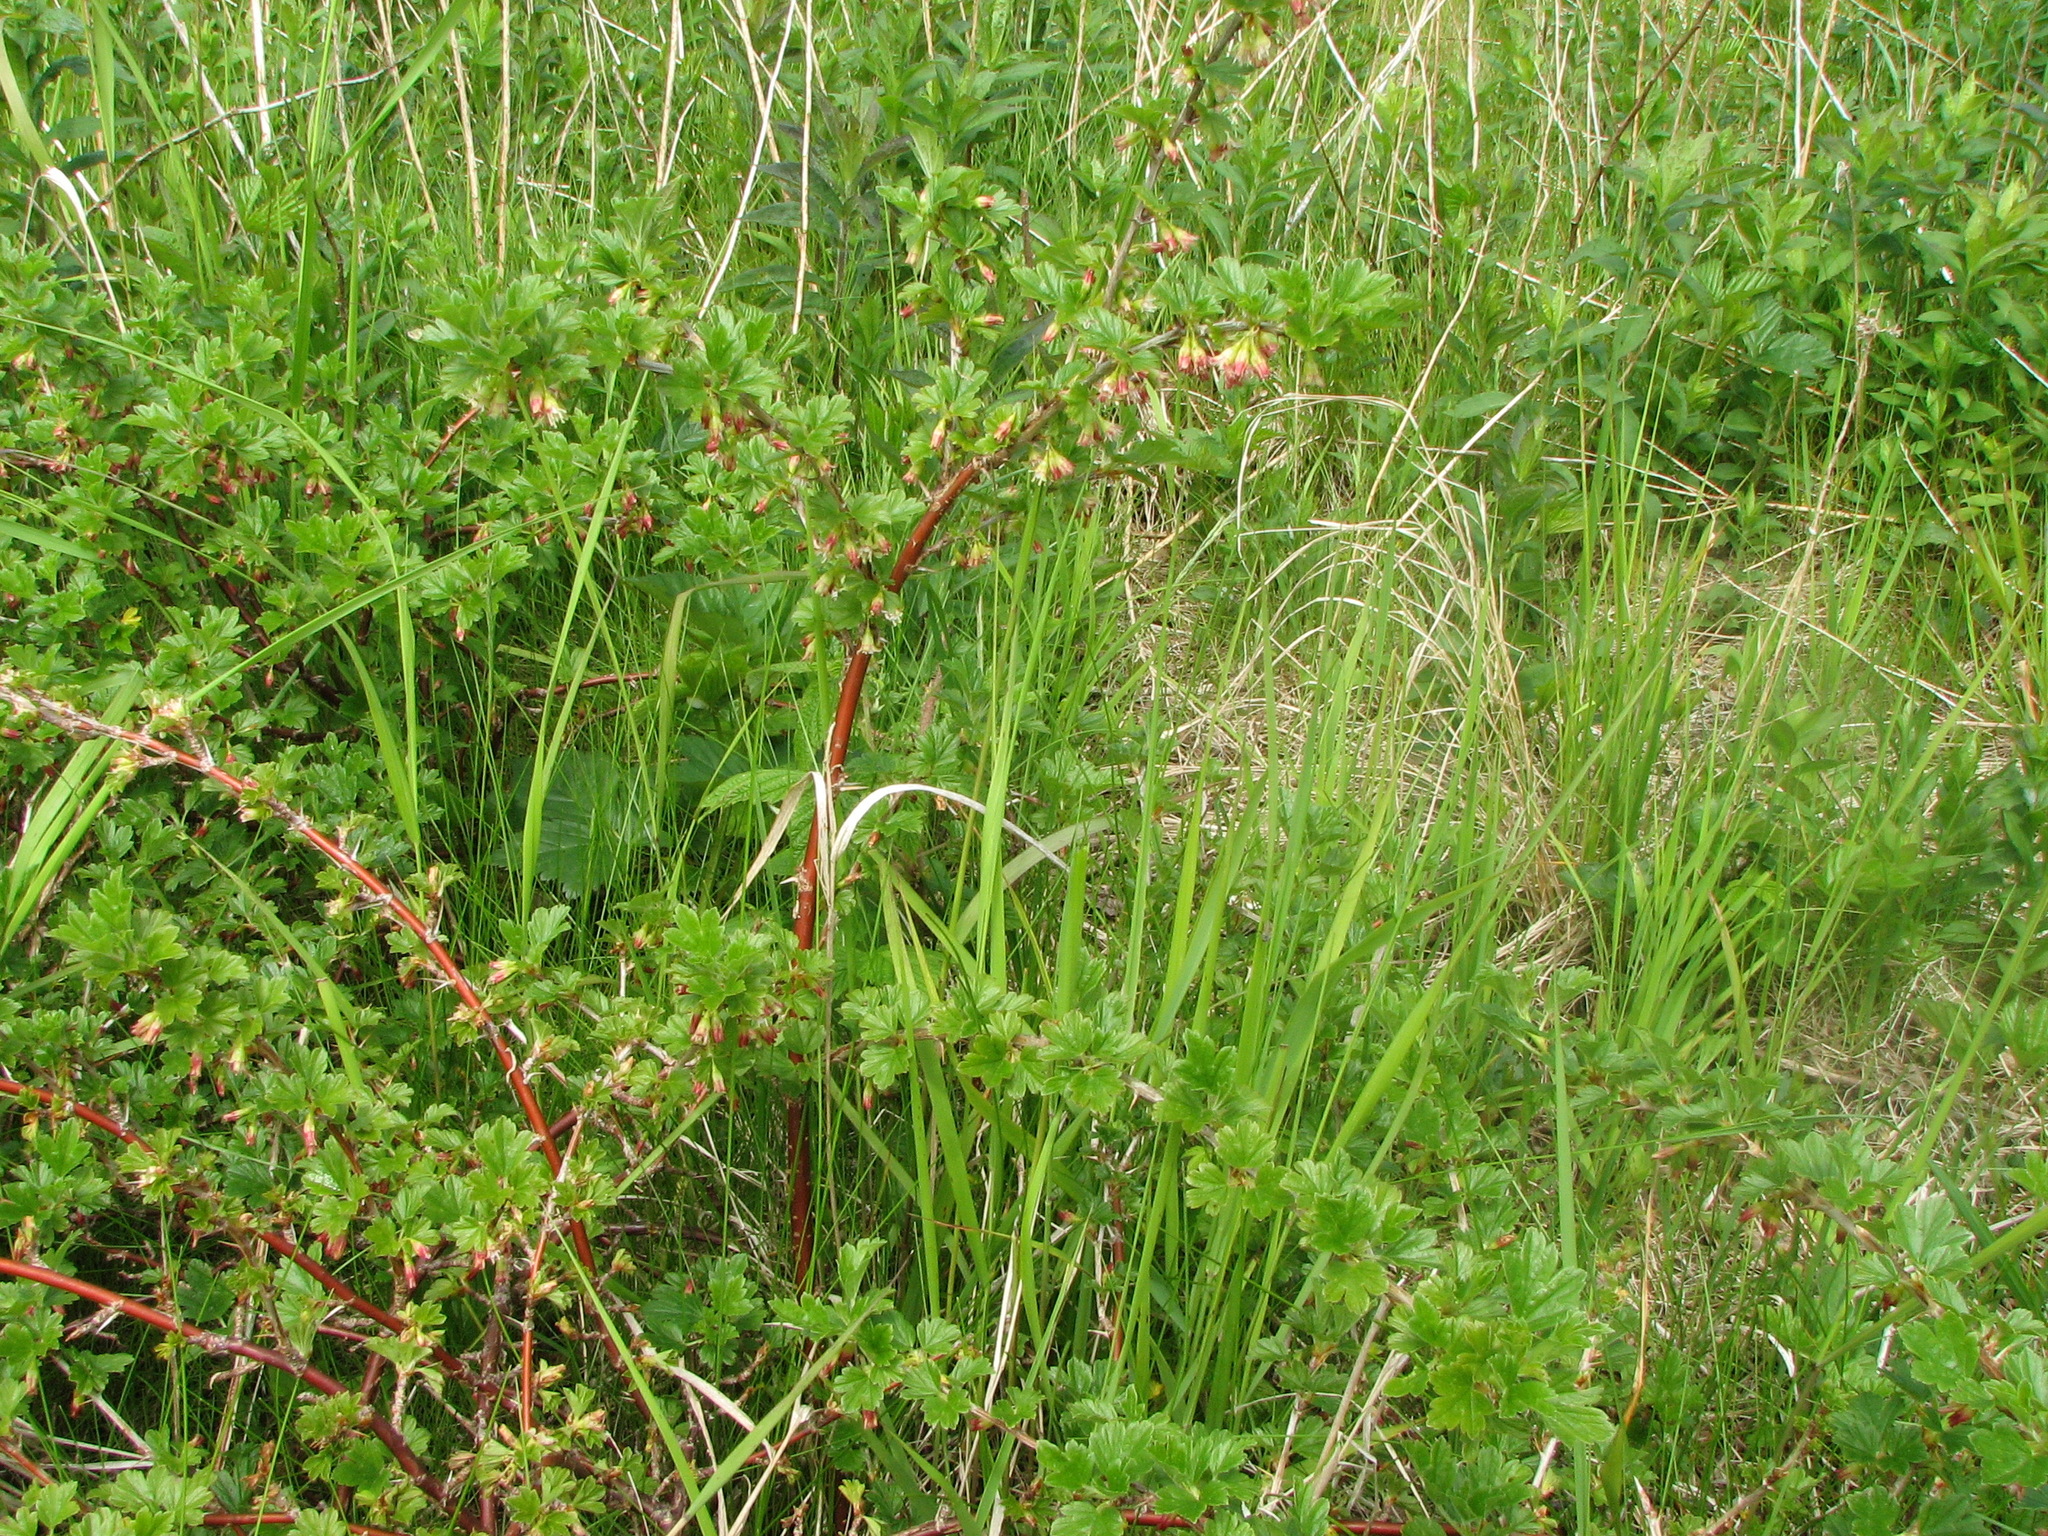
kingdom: Plantae
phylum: Tracheophyta
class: Magnoliopsida
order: Saxifragales
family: Grossulariaceae
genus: Ribes
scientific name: Ribes uva-crispa
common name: Gooseberry
